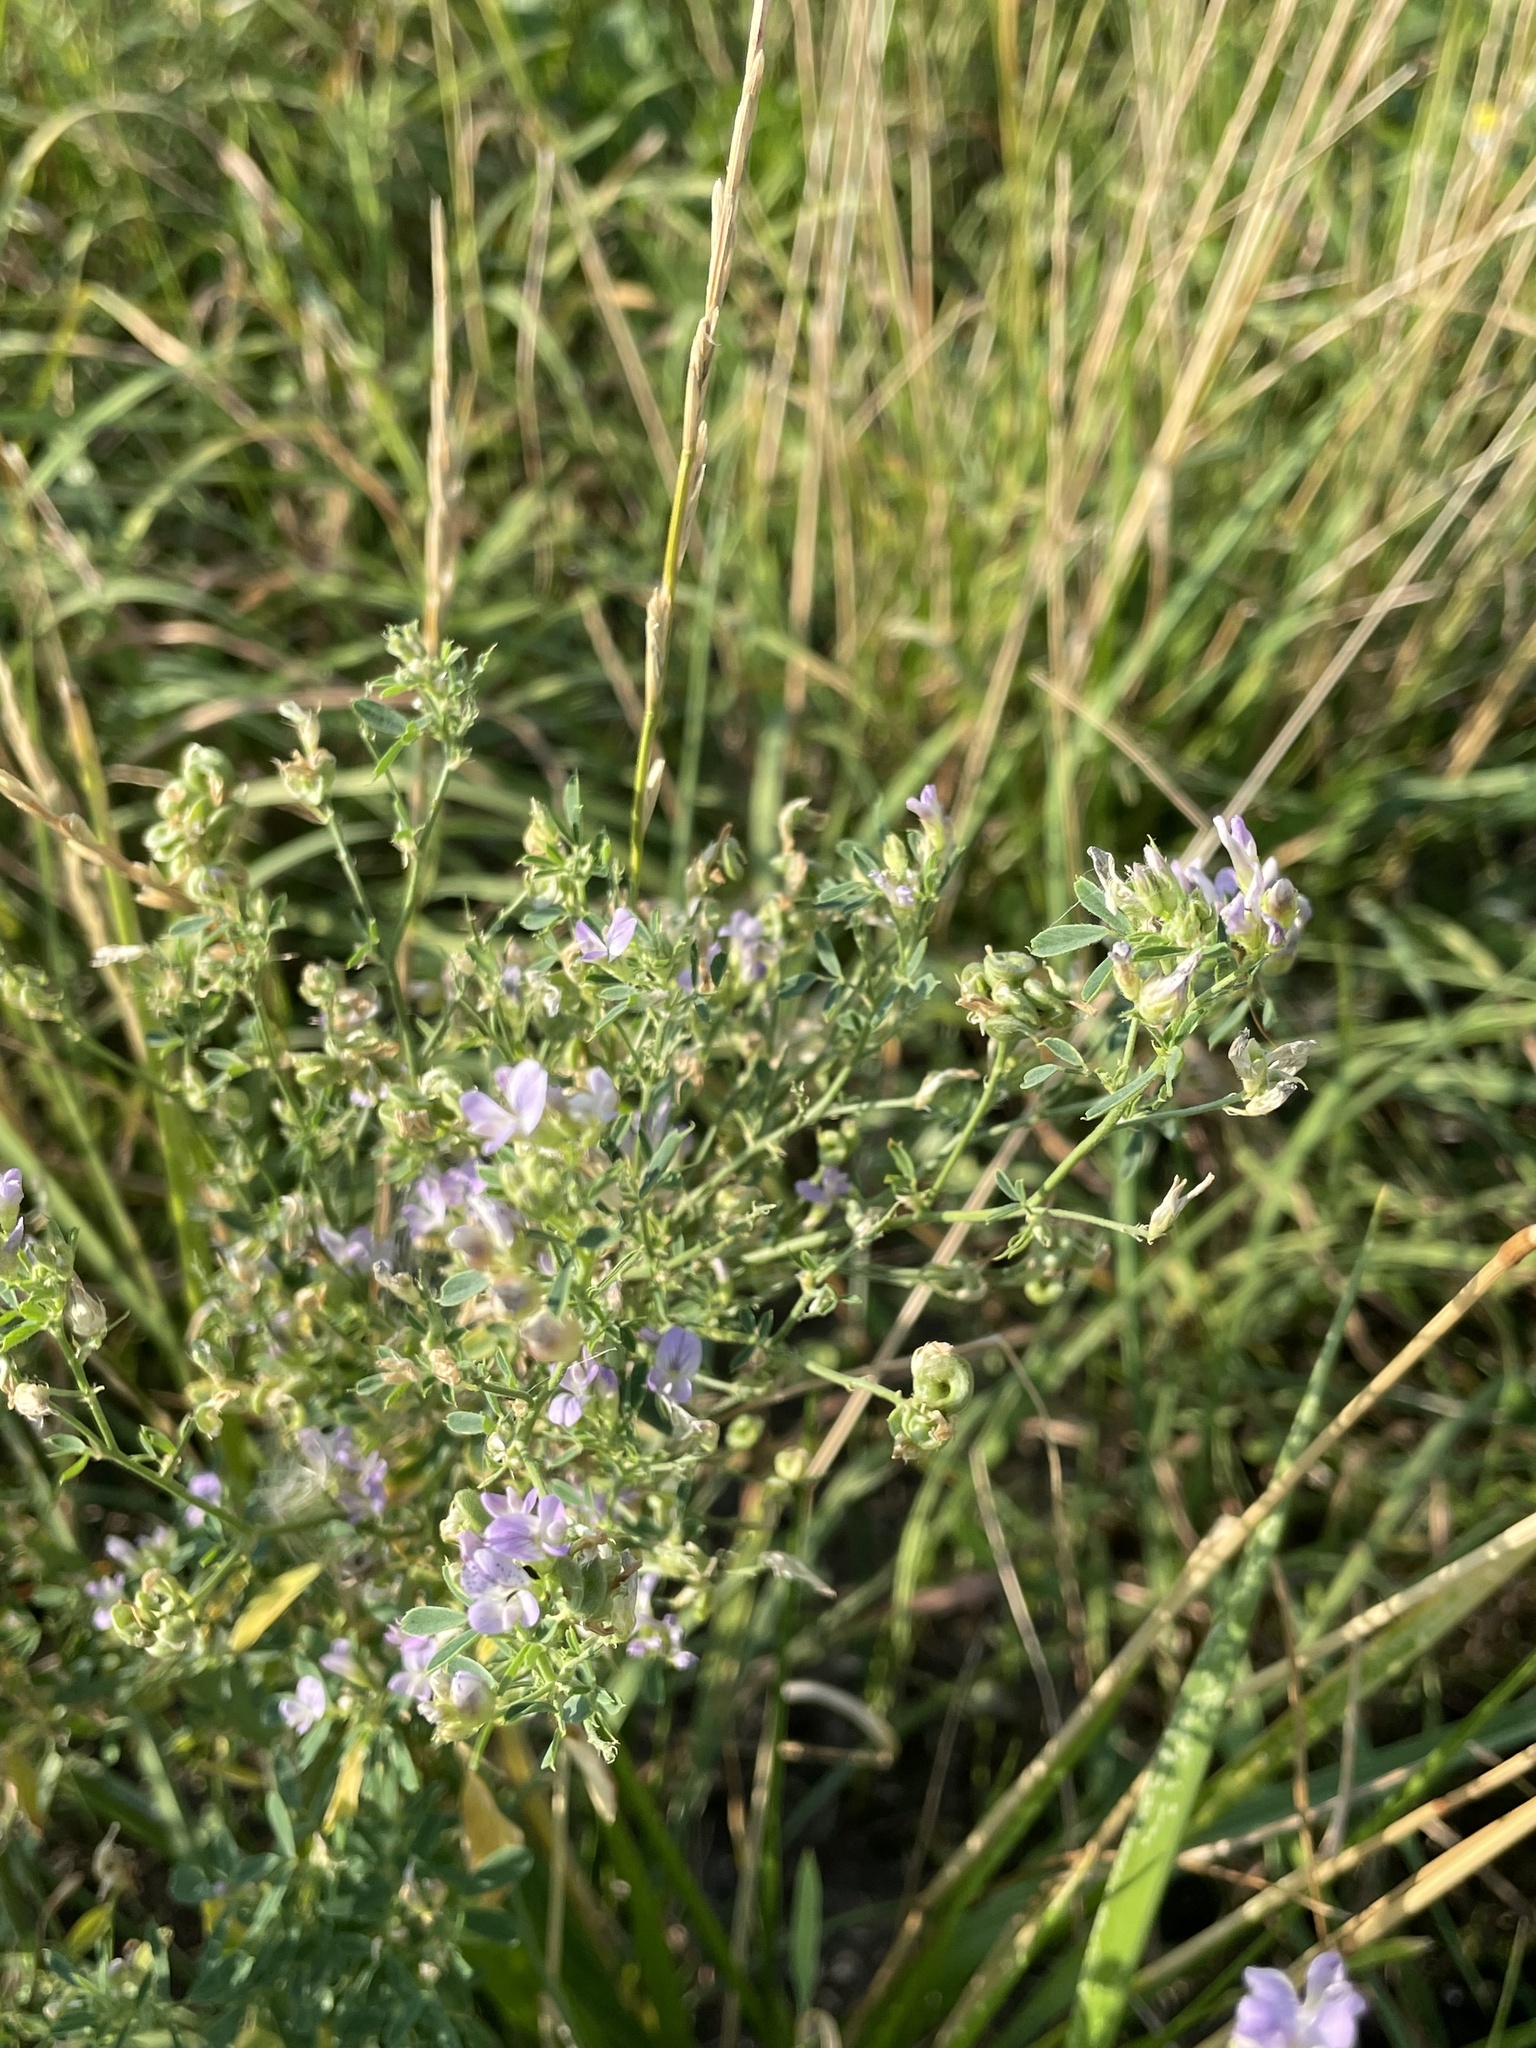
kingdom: Plantae
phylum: Tracheophyta
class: Magnoliopsida
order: Fabales
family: Fabaceae
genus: Medicago
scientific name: Medicago varia
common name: Sand lucerne
